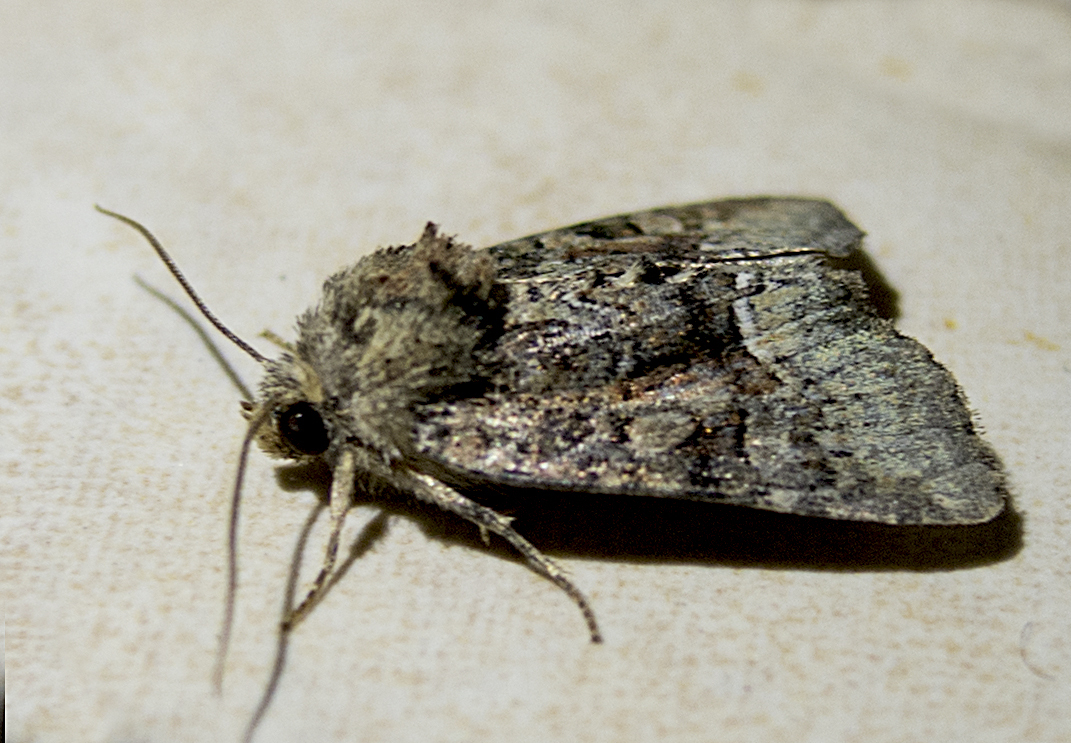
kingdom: Animalia
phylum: Arthropoda
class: Insecta
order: Lepidoptera
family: Noctuidae
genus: Oligia
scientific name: Oligia
